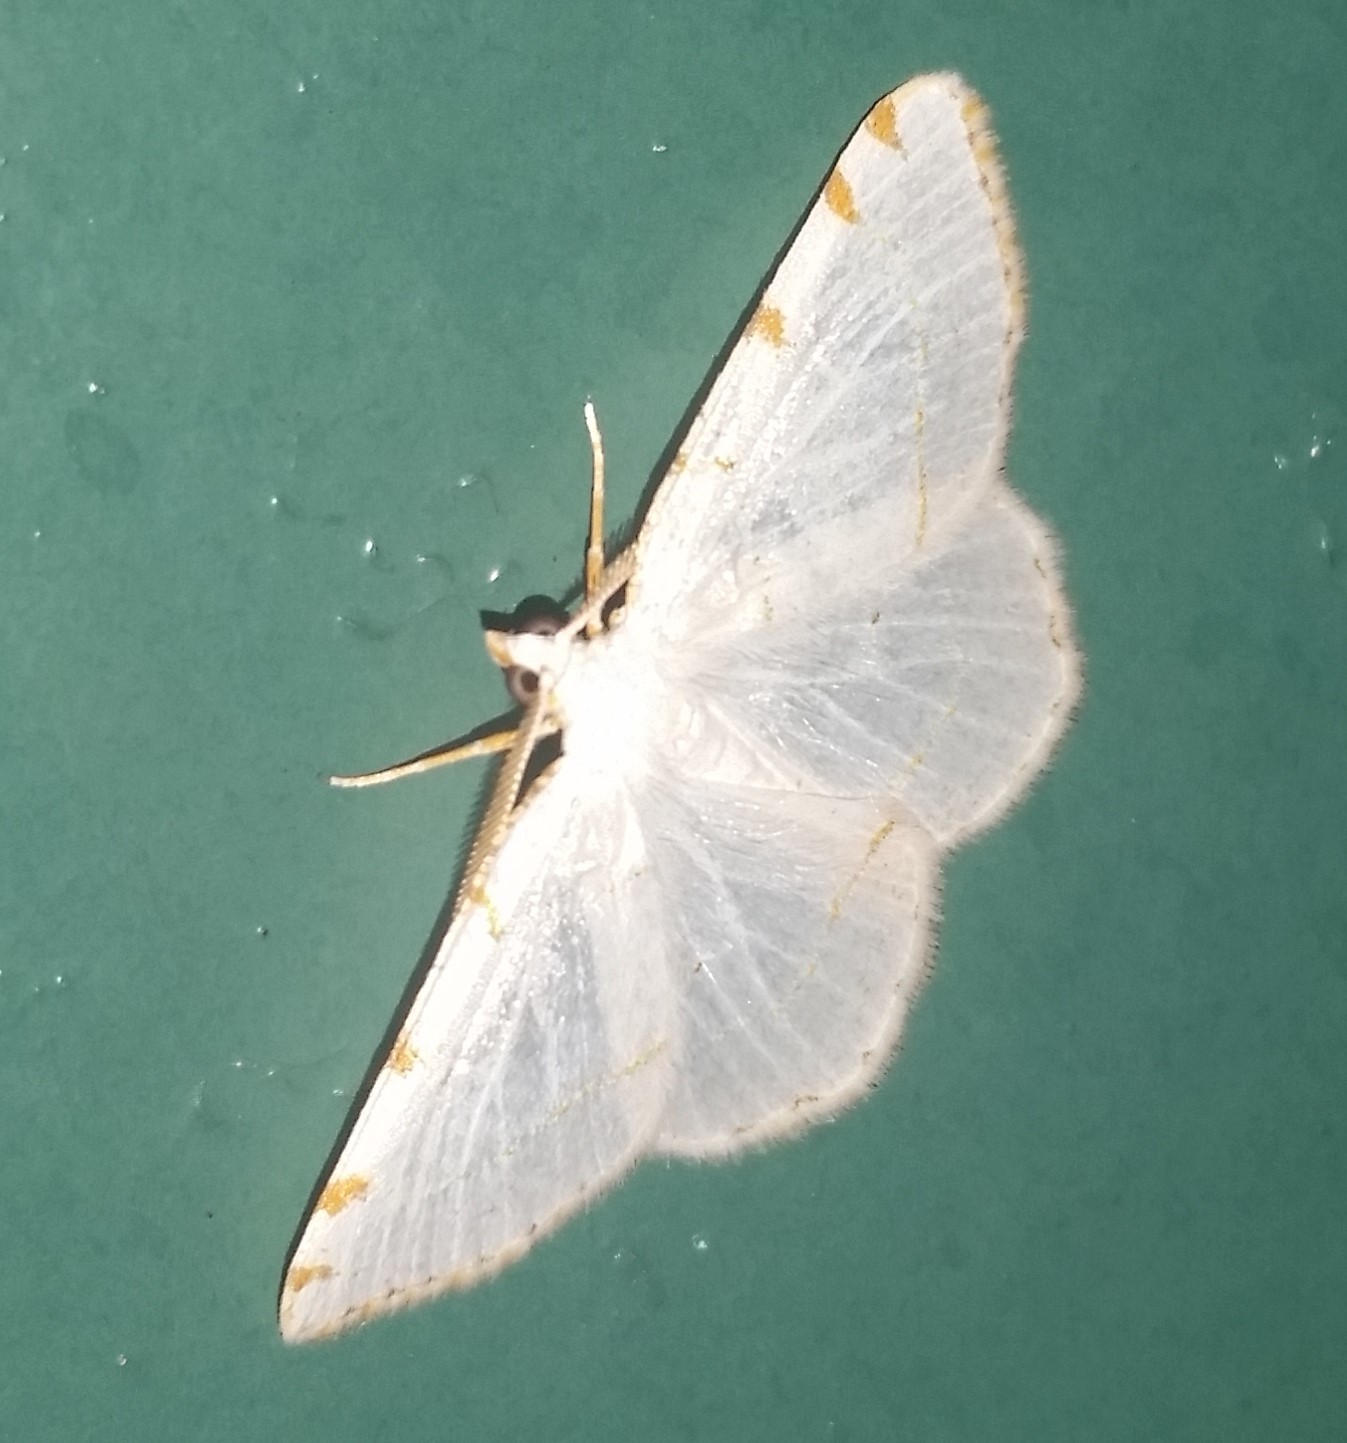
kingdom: Animalia
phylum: Arthropoda
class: Insecta
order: Lepidoptera
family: Geometridae
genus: Macaria
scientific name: Macaria pustularia
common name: Lesser maple spanworm moth
